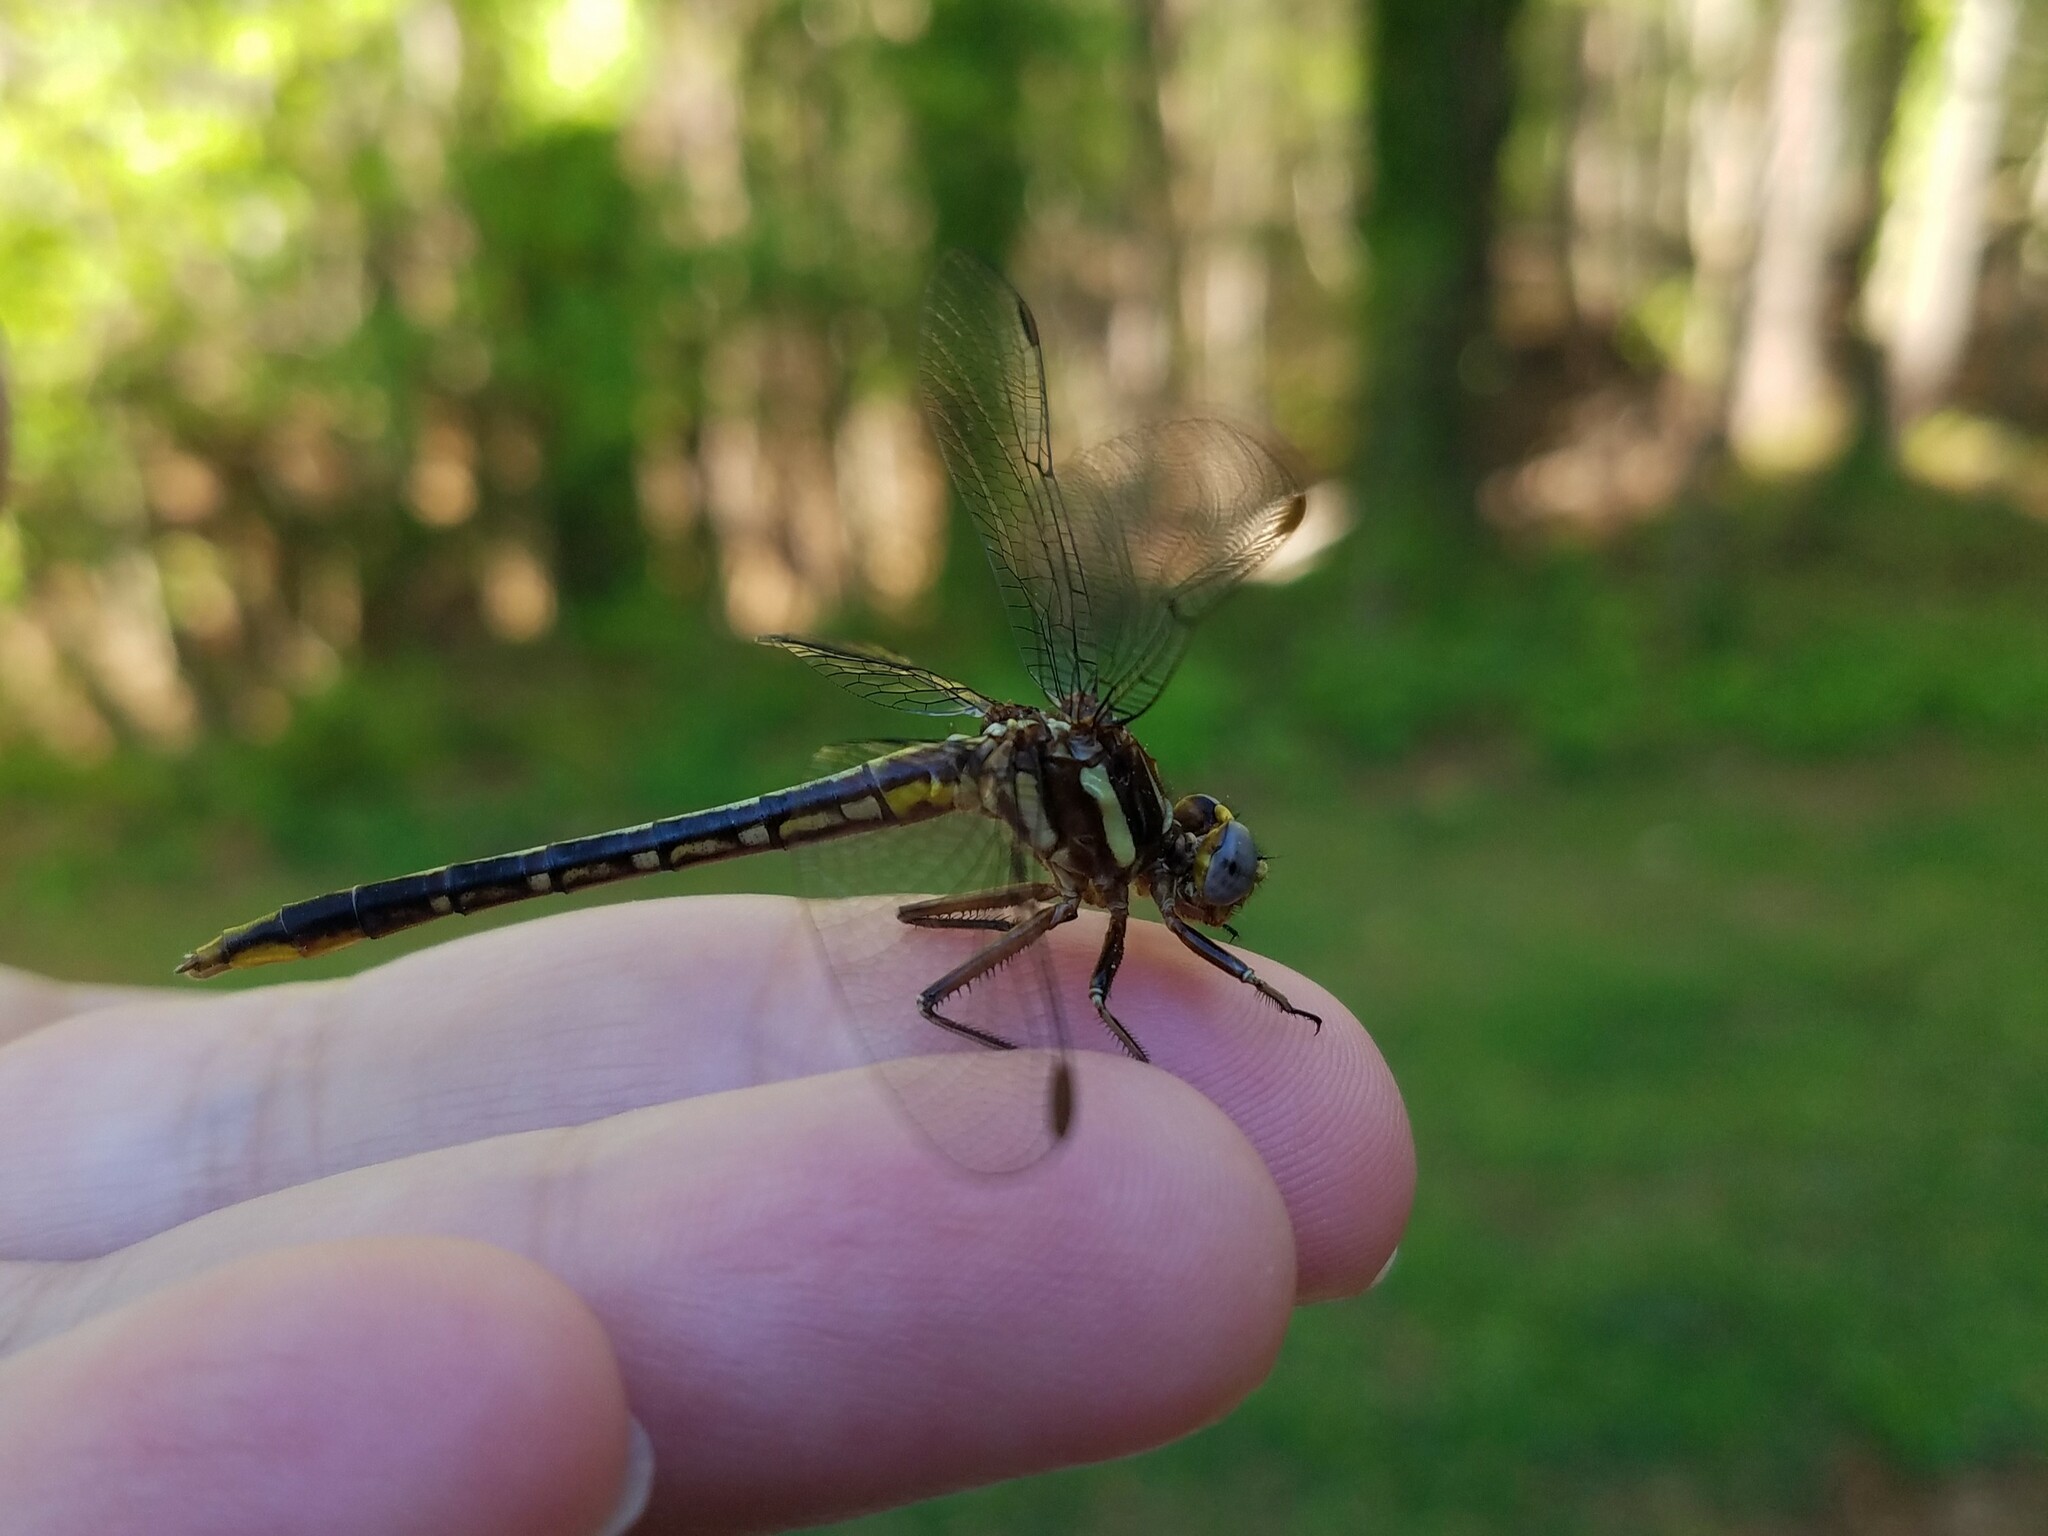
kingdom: Animalia
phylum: Arthropoda
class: Insecta
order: Odonata
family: Gomphidae
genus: Phanogomphus
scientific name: Phanogomphus exilis
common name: Lancet clubtail
